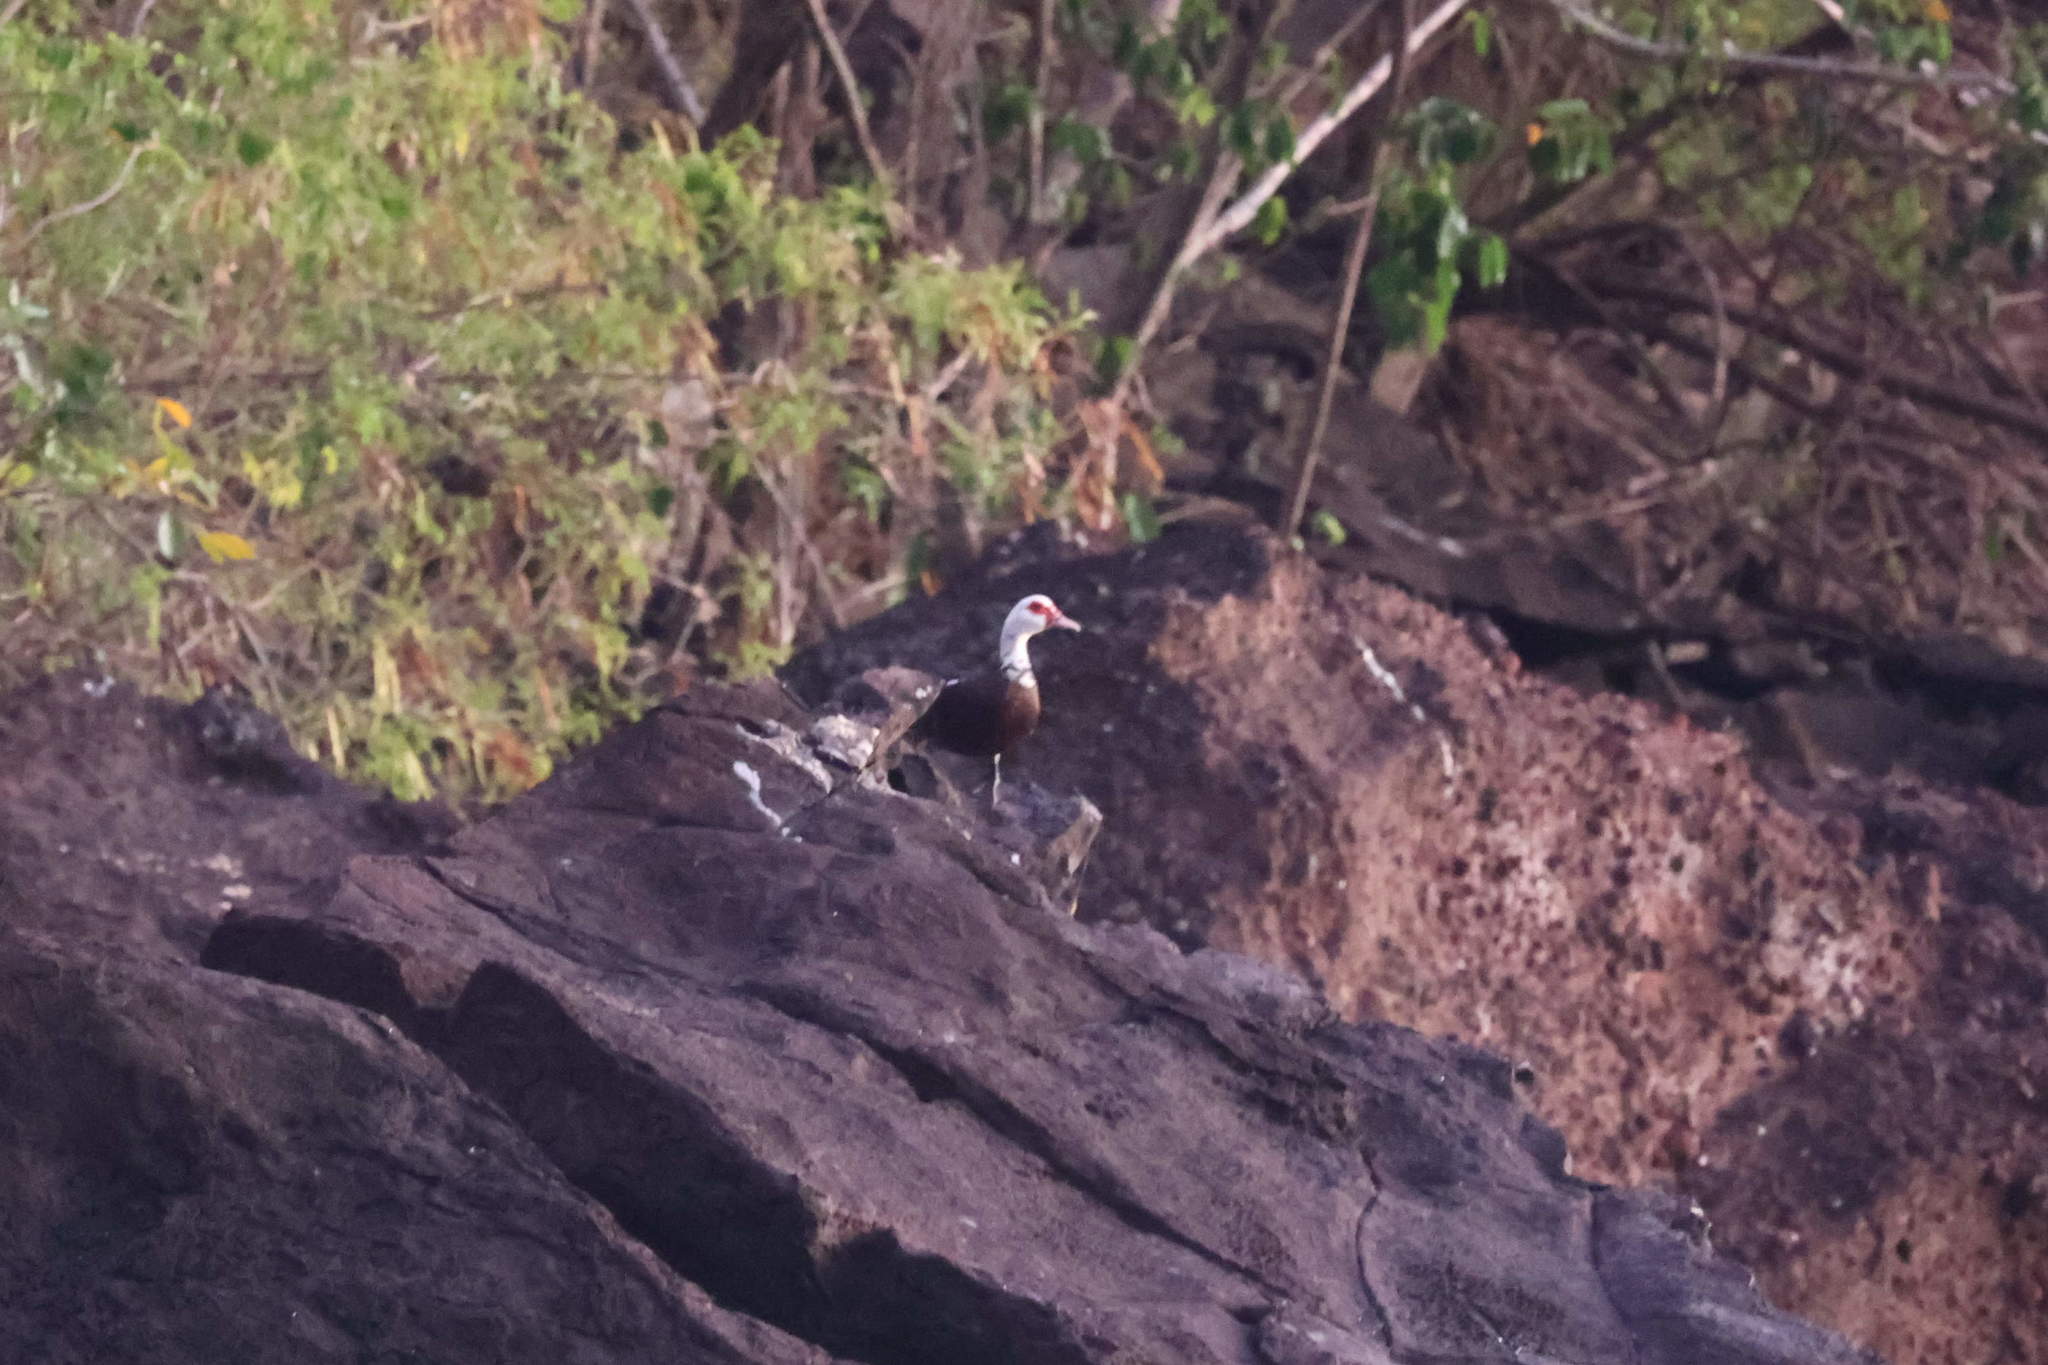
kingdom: Animalia
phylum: Chordata
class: Aves
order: Anseriformes
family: Anatidae
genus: Cairina
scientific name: Cairina moschata
